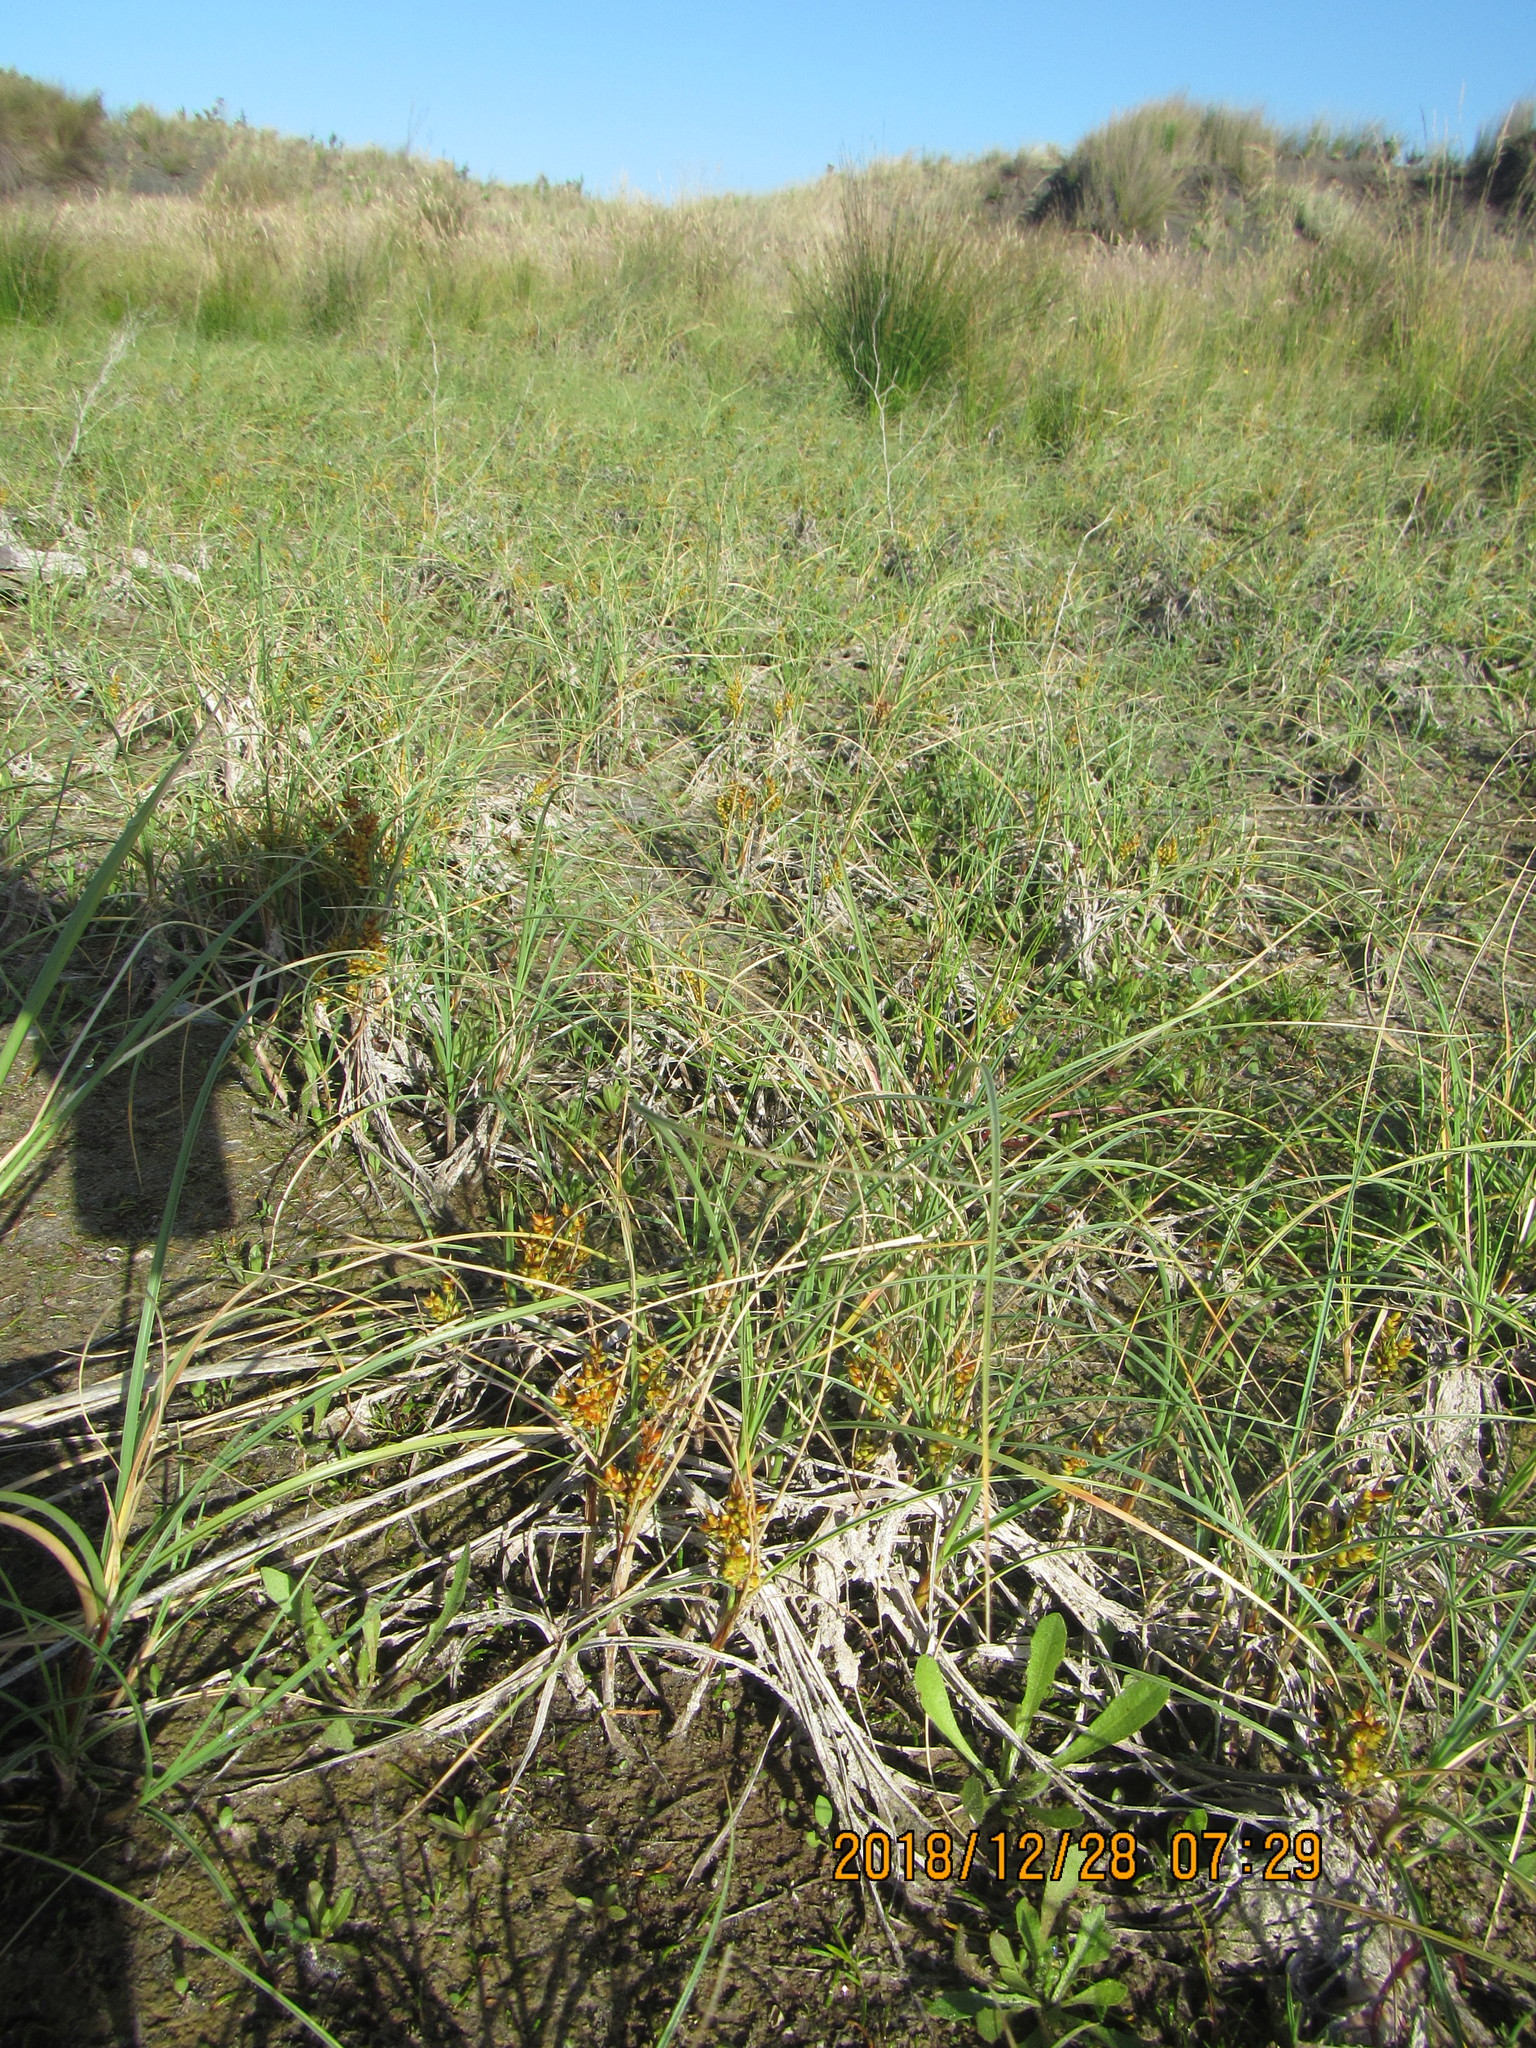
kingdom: Plantae
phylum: Tracheophyta
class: Liliopsida
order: Poales
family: Cyperaceae
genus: Carex
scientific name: Carex pumila
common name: Dwarf sedge
